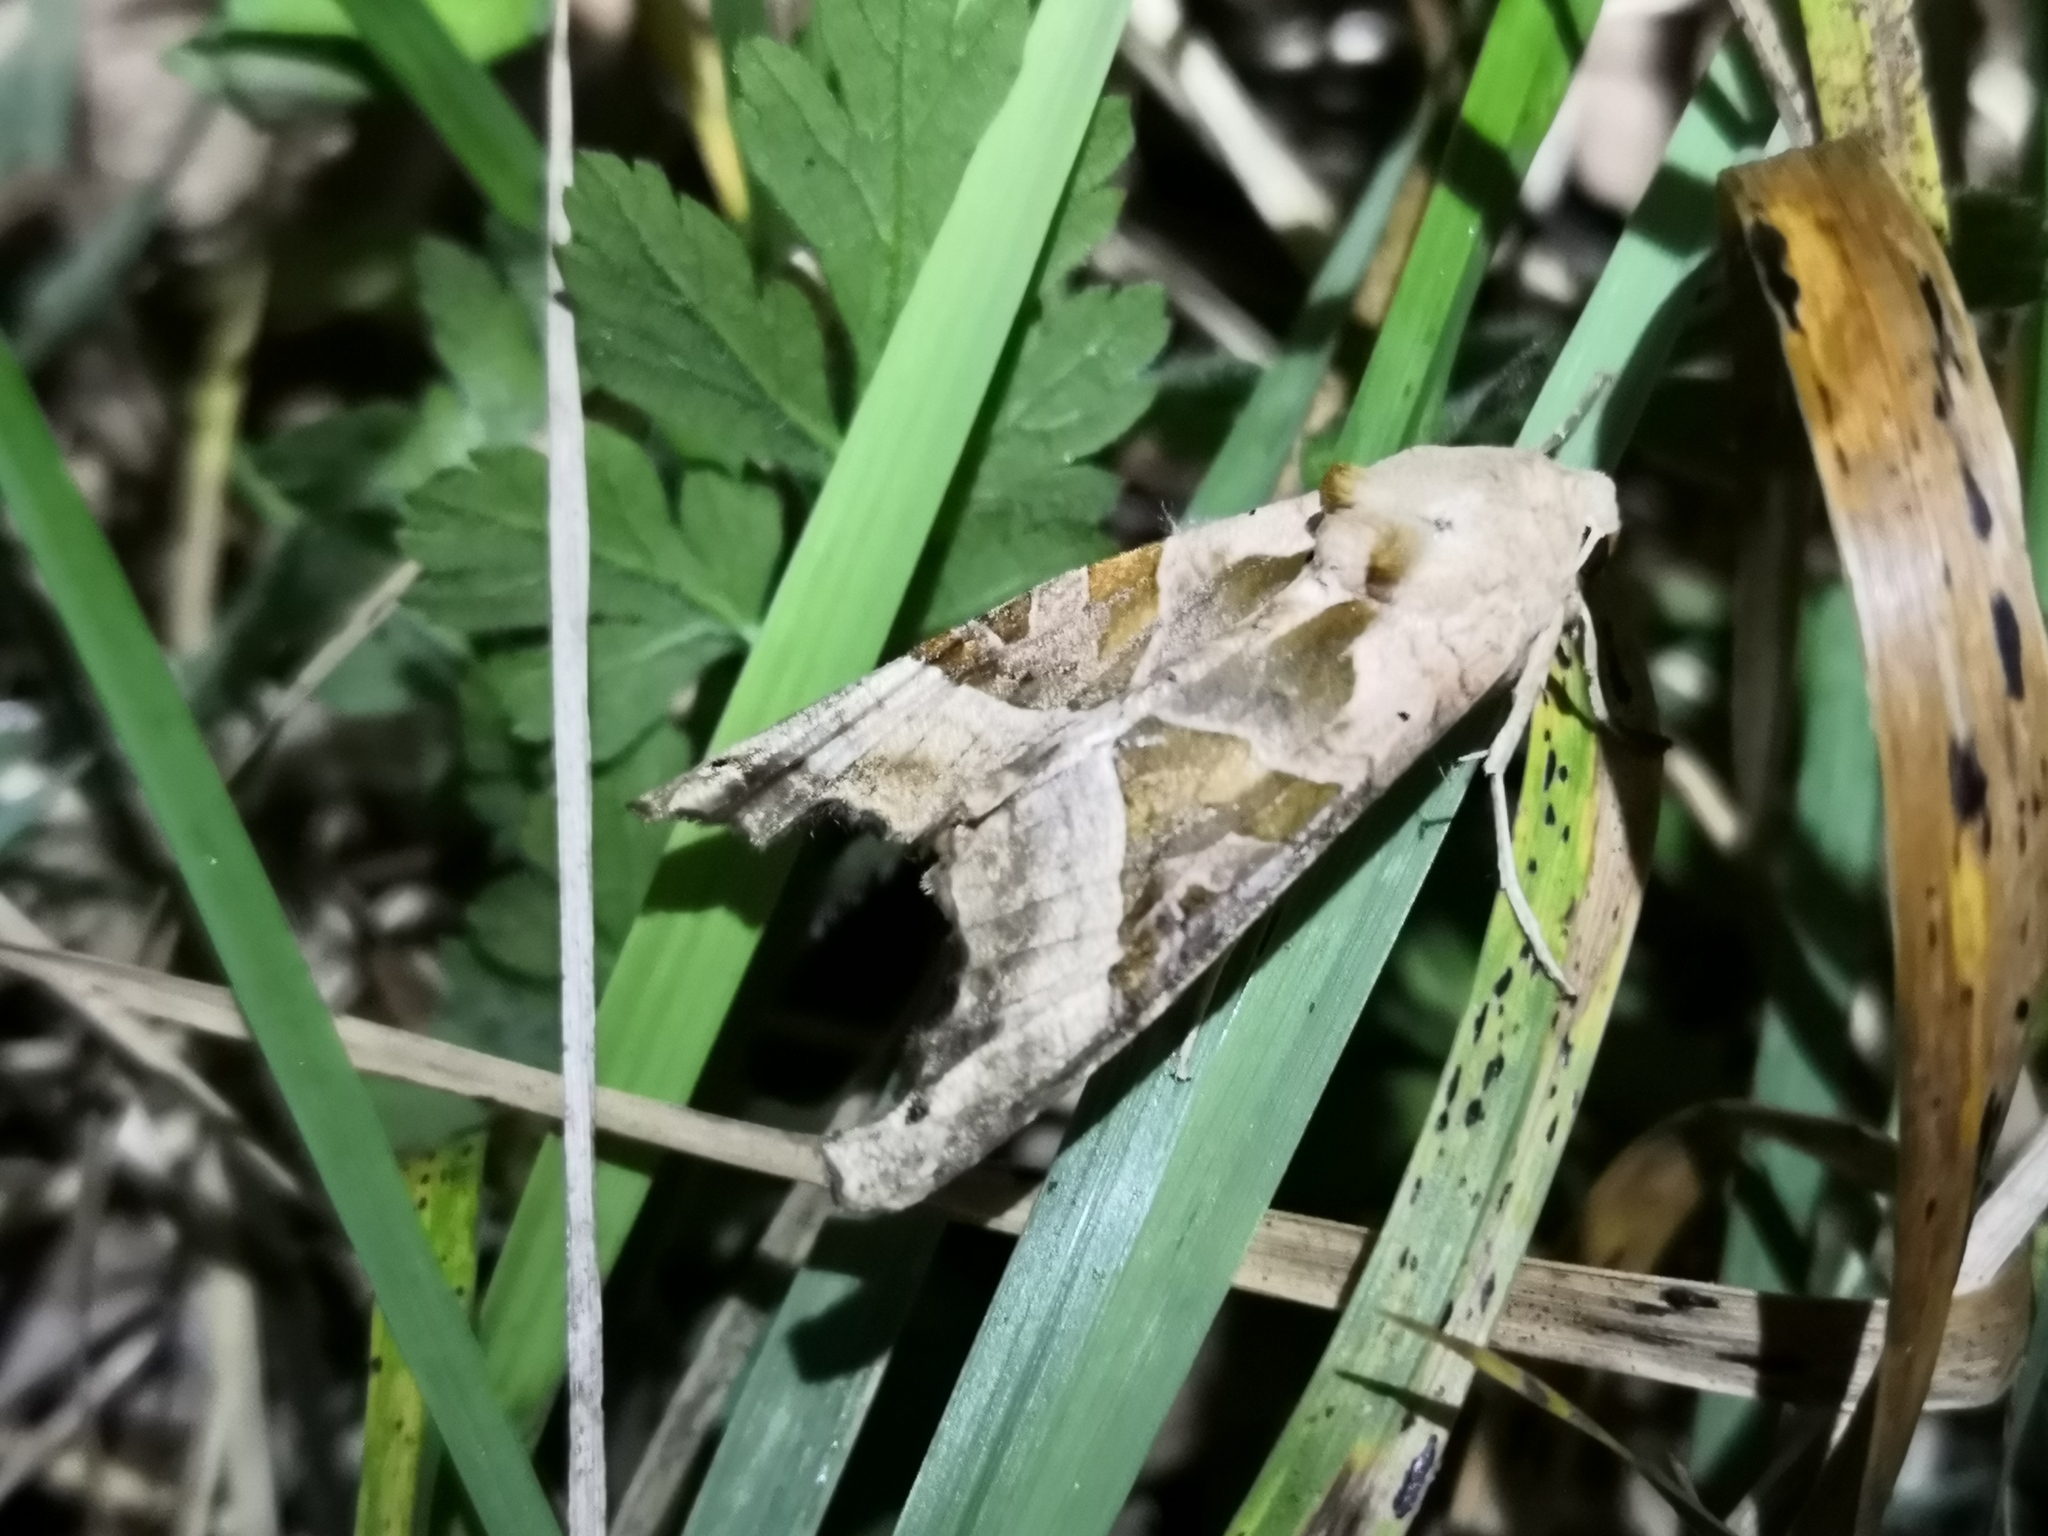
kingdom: Animalia
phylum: Arthropoda
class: Insecta
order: Lepidoptera
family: Noctuidae
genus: Phlogophora
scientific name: Phlogophora meticulosa
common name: Angle shades
